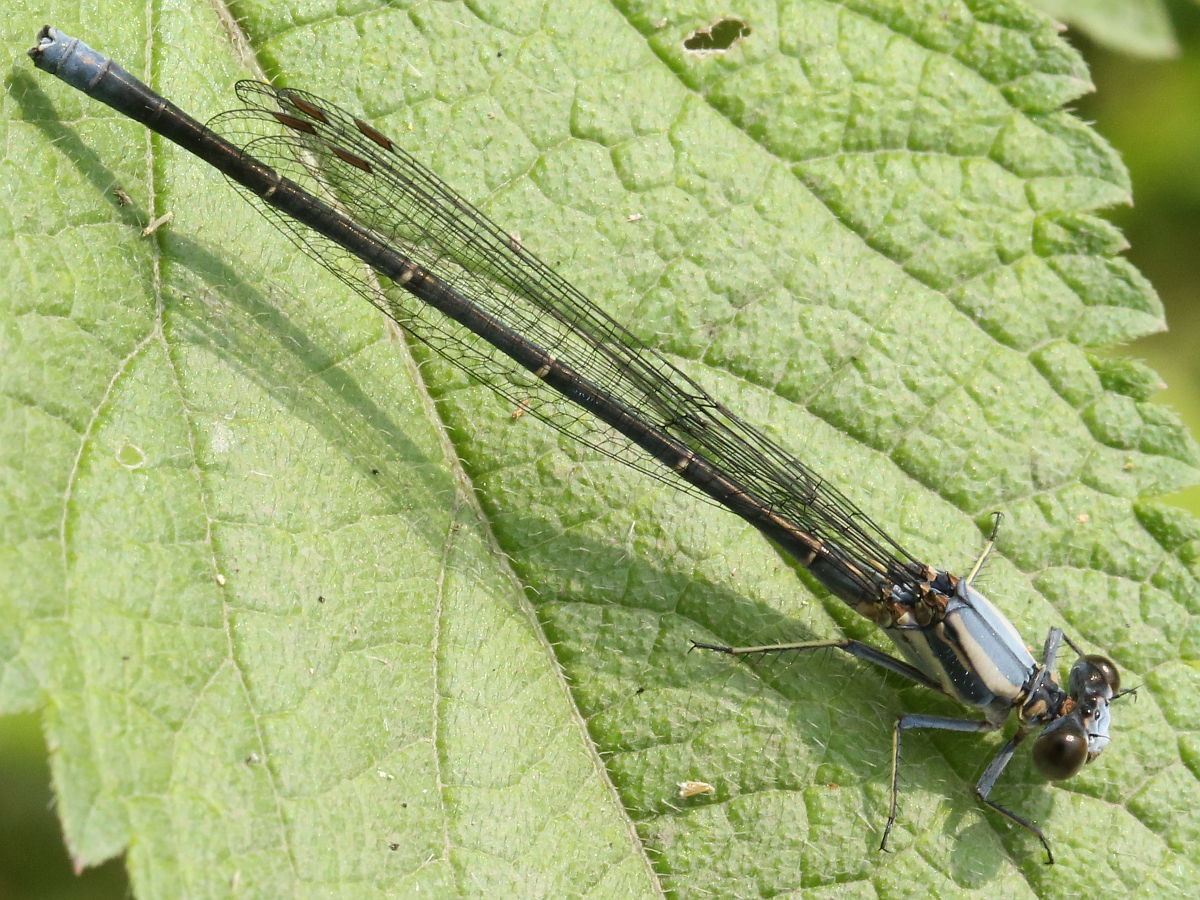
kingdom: Animalia
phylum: Arthropoda
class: Insecta
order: Odonata
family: Coenagrionidae
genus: Argia
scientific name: Argia moesta
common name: Powdered dancer
